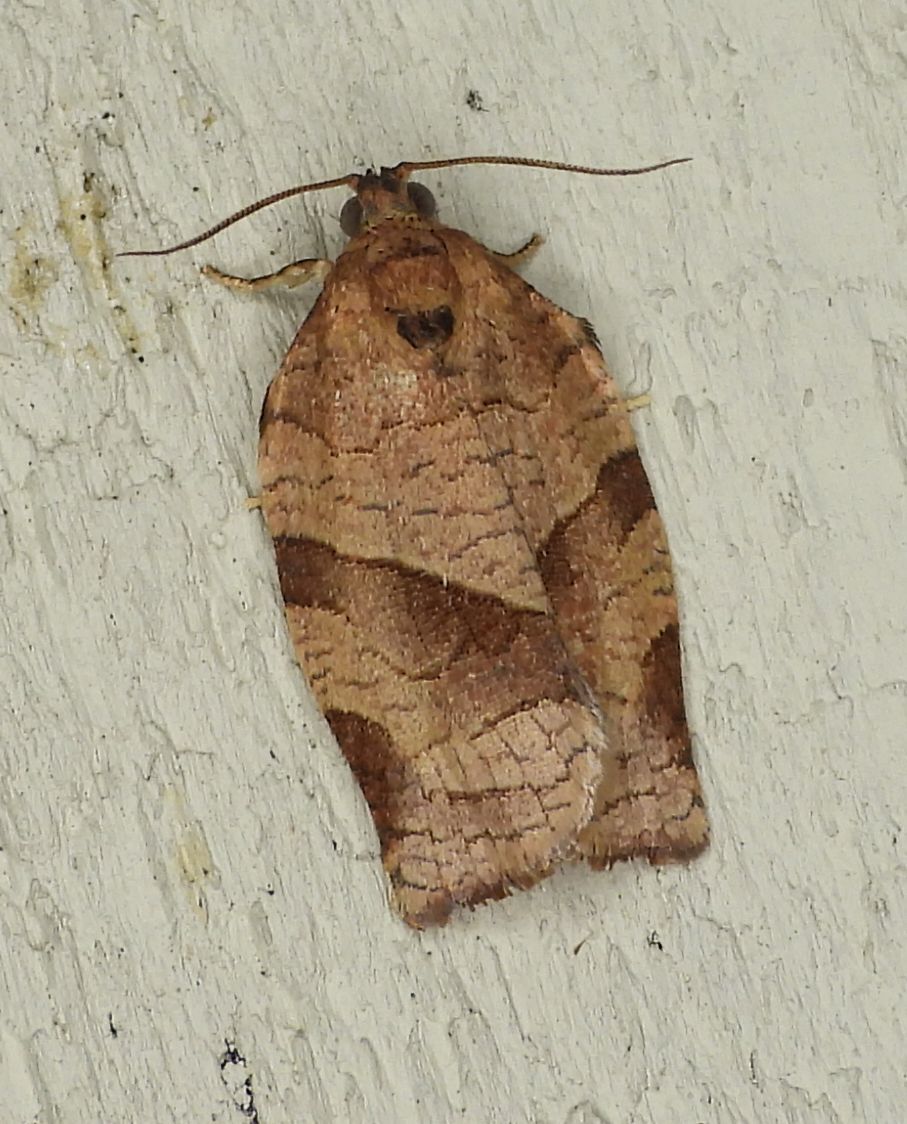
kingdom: Animalia
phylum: Arthropoda
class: Insecta
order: Lepidoptera
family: Tortricidae
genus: Choristoneura
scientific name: Choristoneura rosaceana
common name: Oblique-banded leafroller moth
